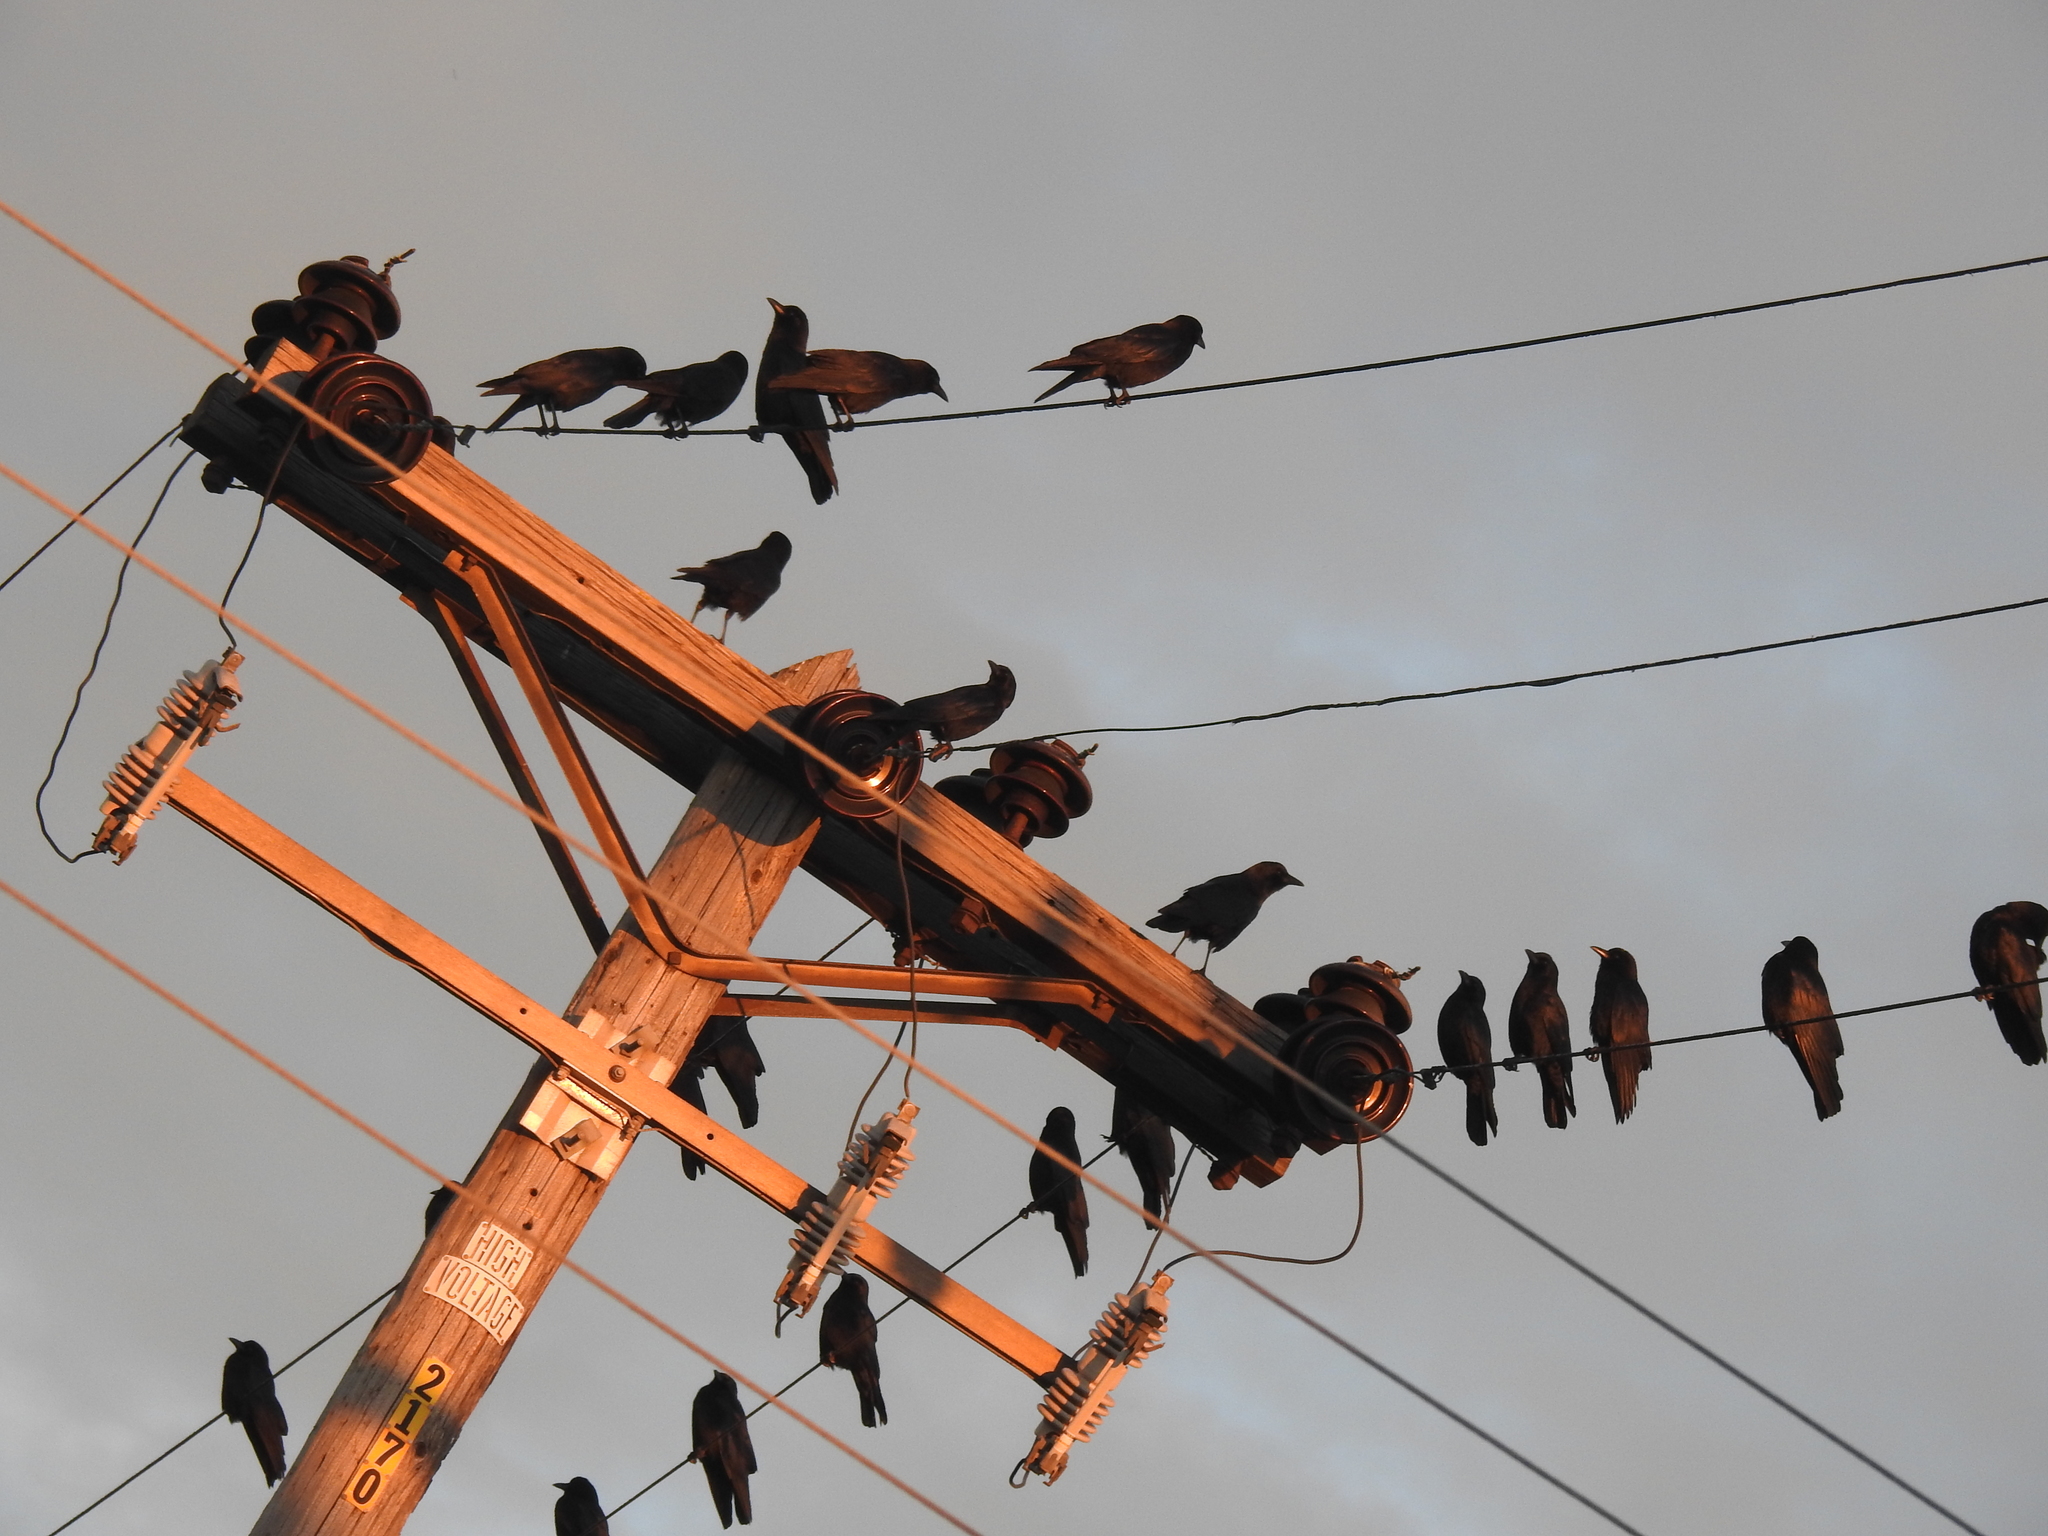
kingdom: Animalia
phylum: Chordata
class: Aves
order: Passeriformes
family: Corvidae
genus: Corvus
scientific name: Corvus brachyrhynchos
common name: American crow
